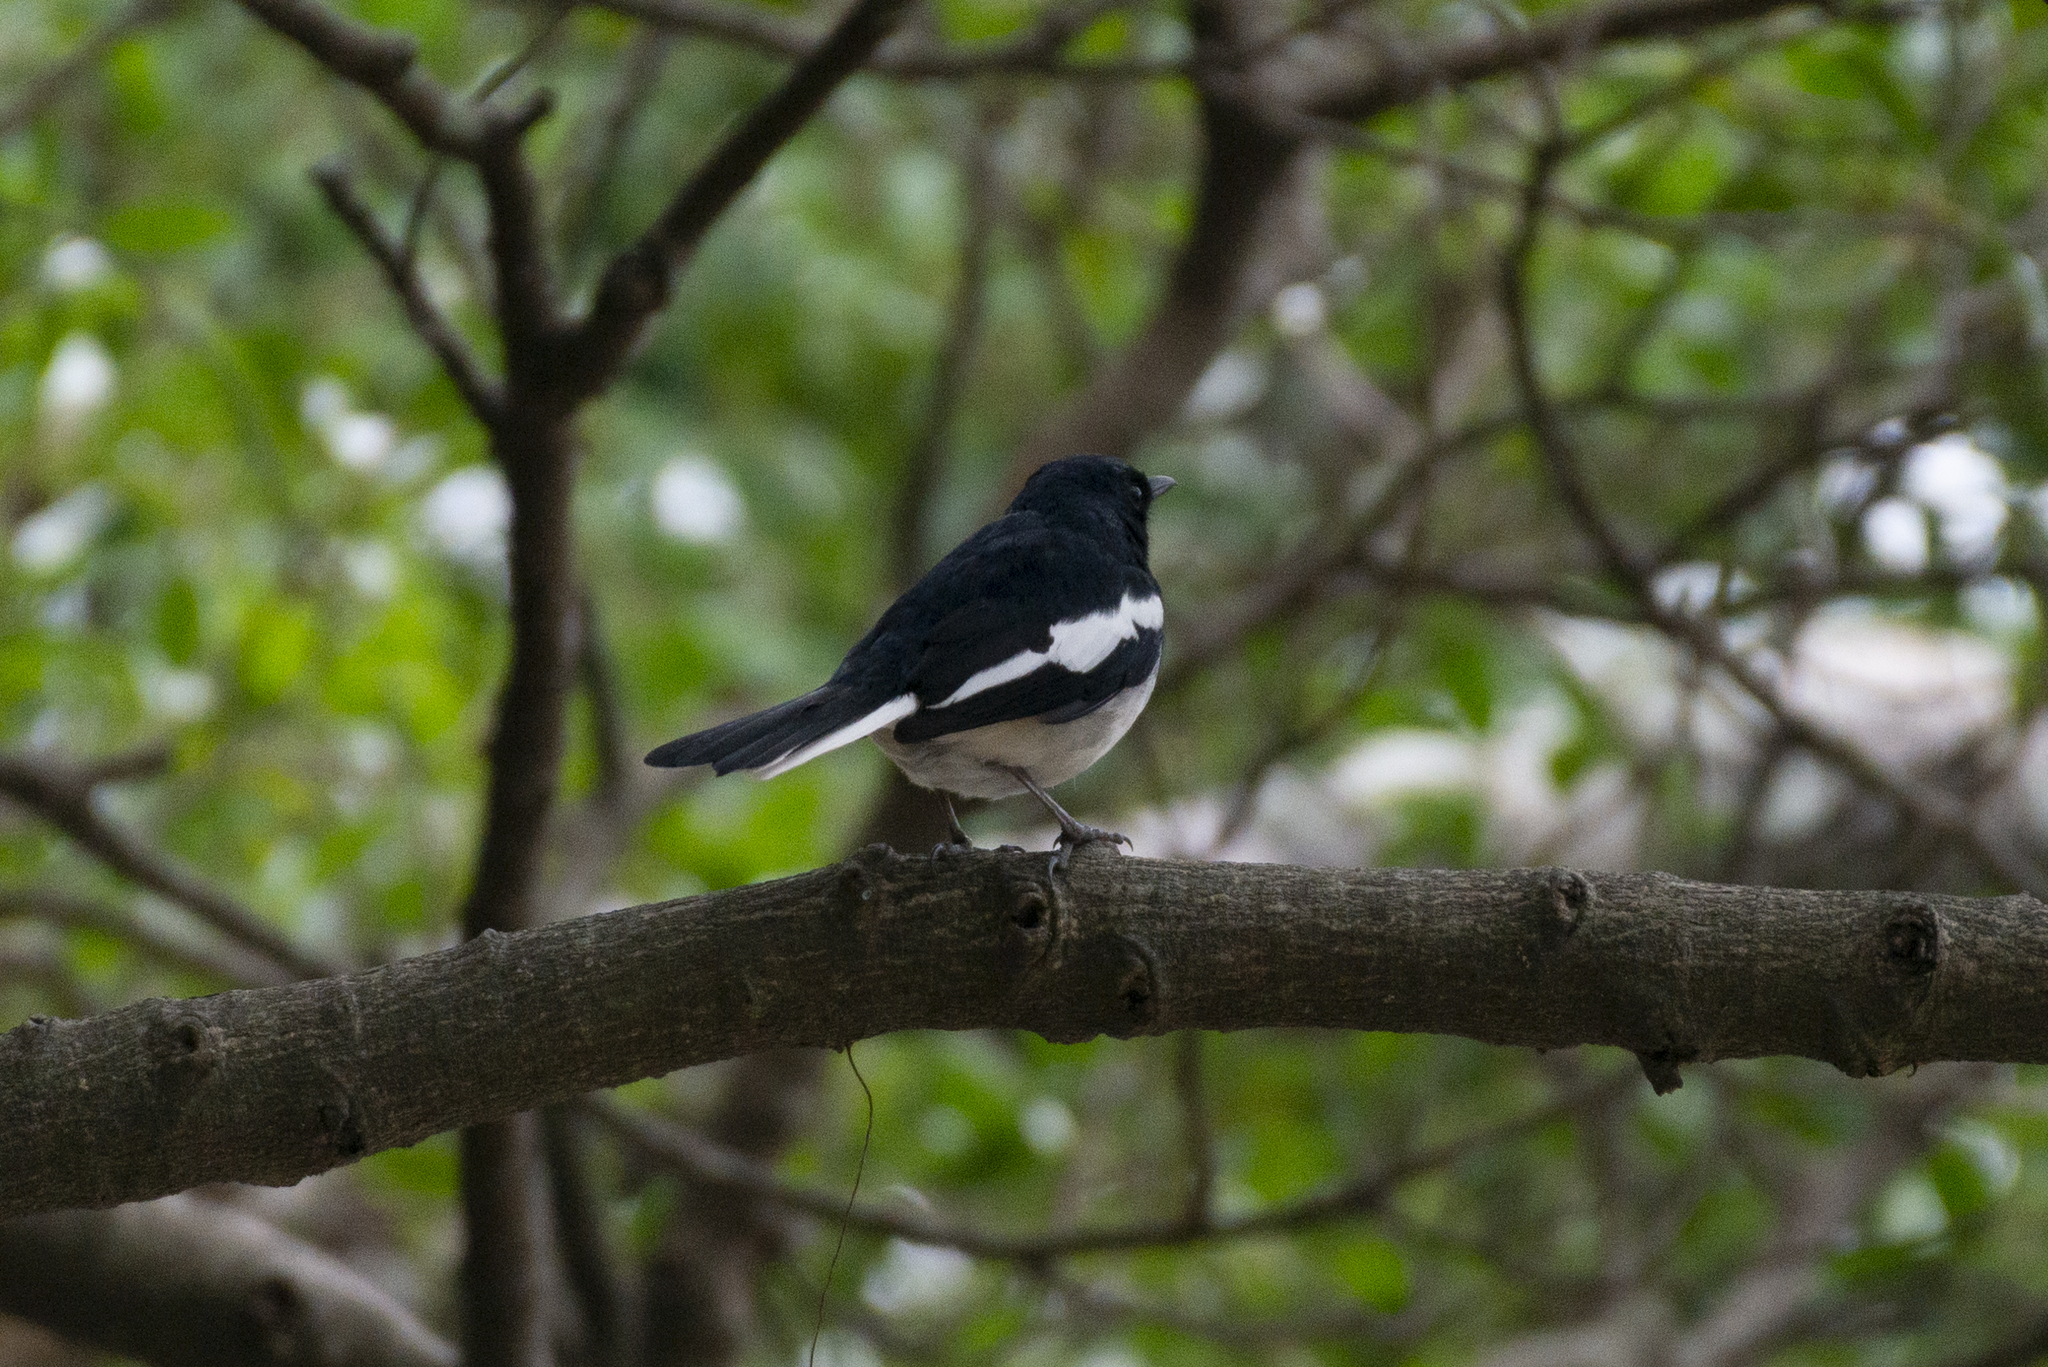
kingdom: Animalia
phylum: Chordata
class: Aves
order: Passeriformes
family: Muscicapidae
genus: Copsychus
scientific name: Copsychus saularis
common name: Oriental magpie-robin
